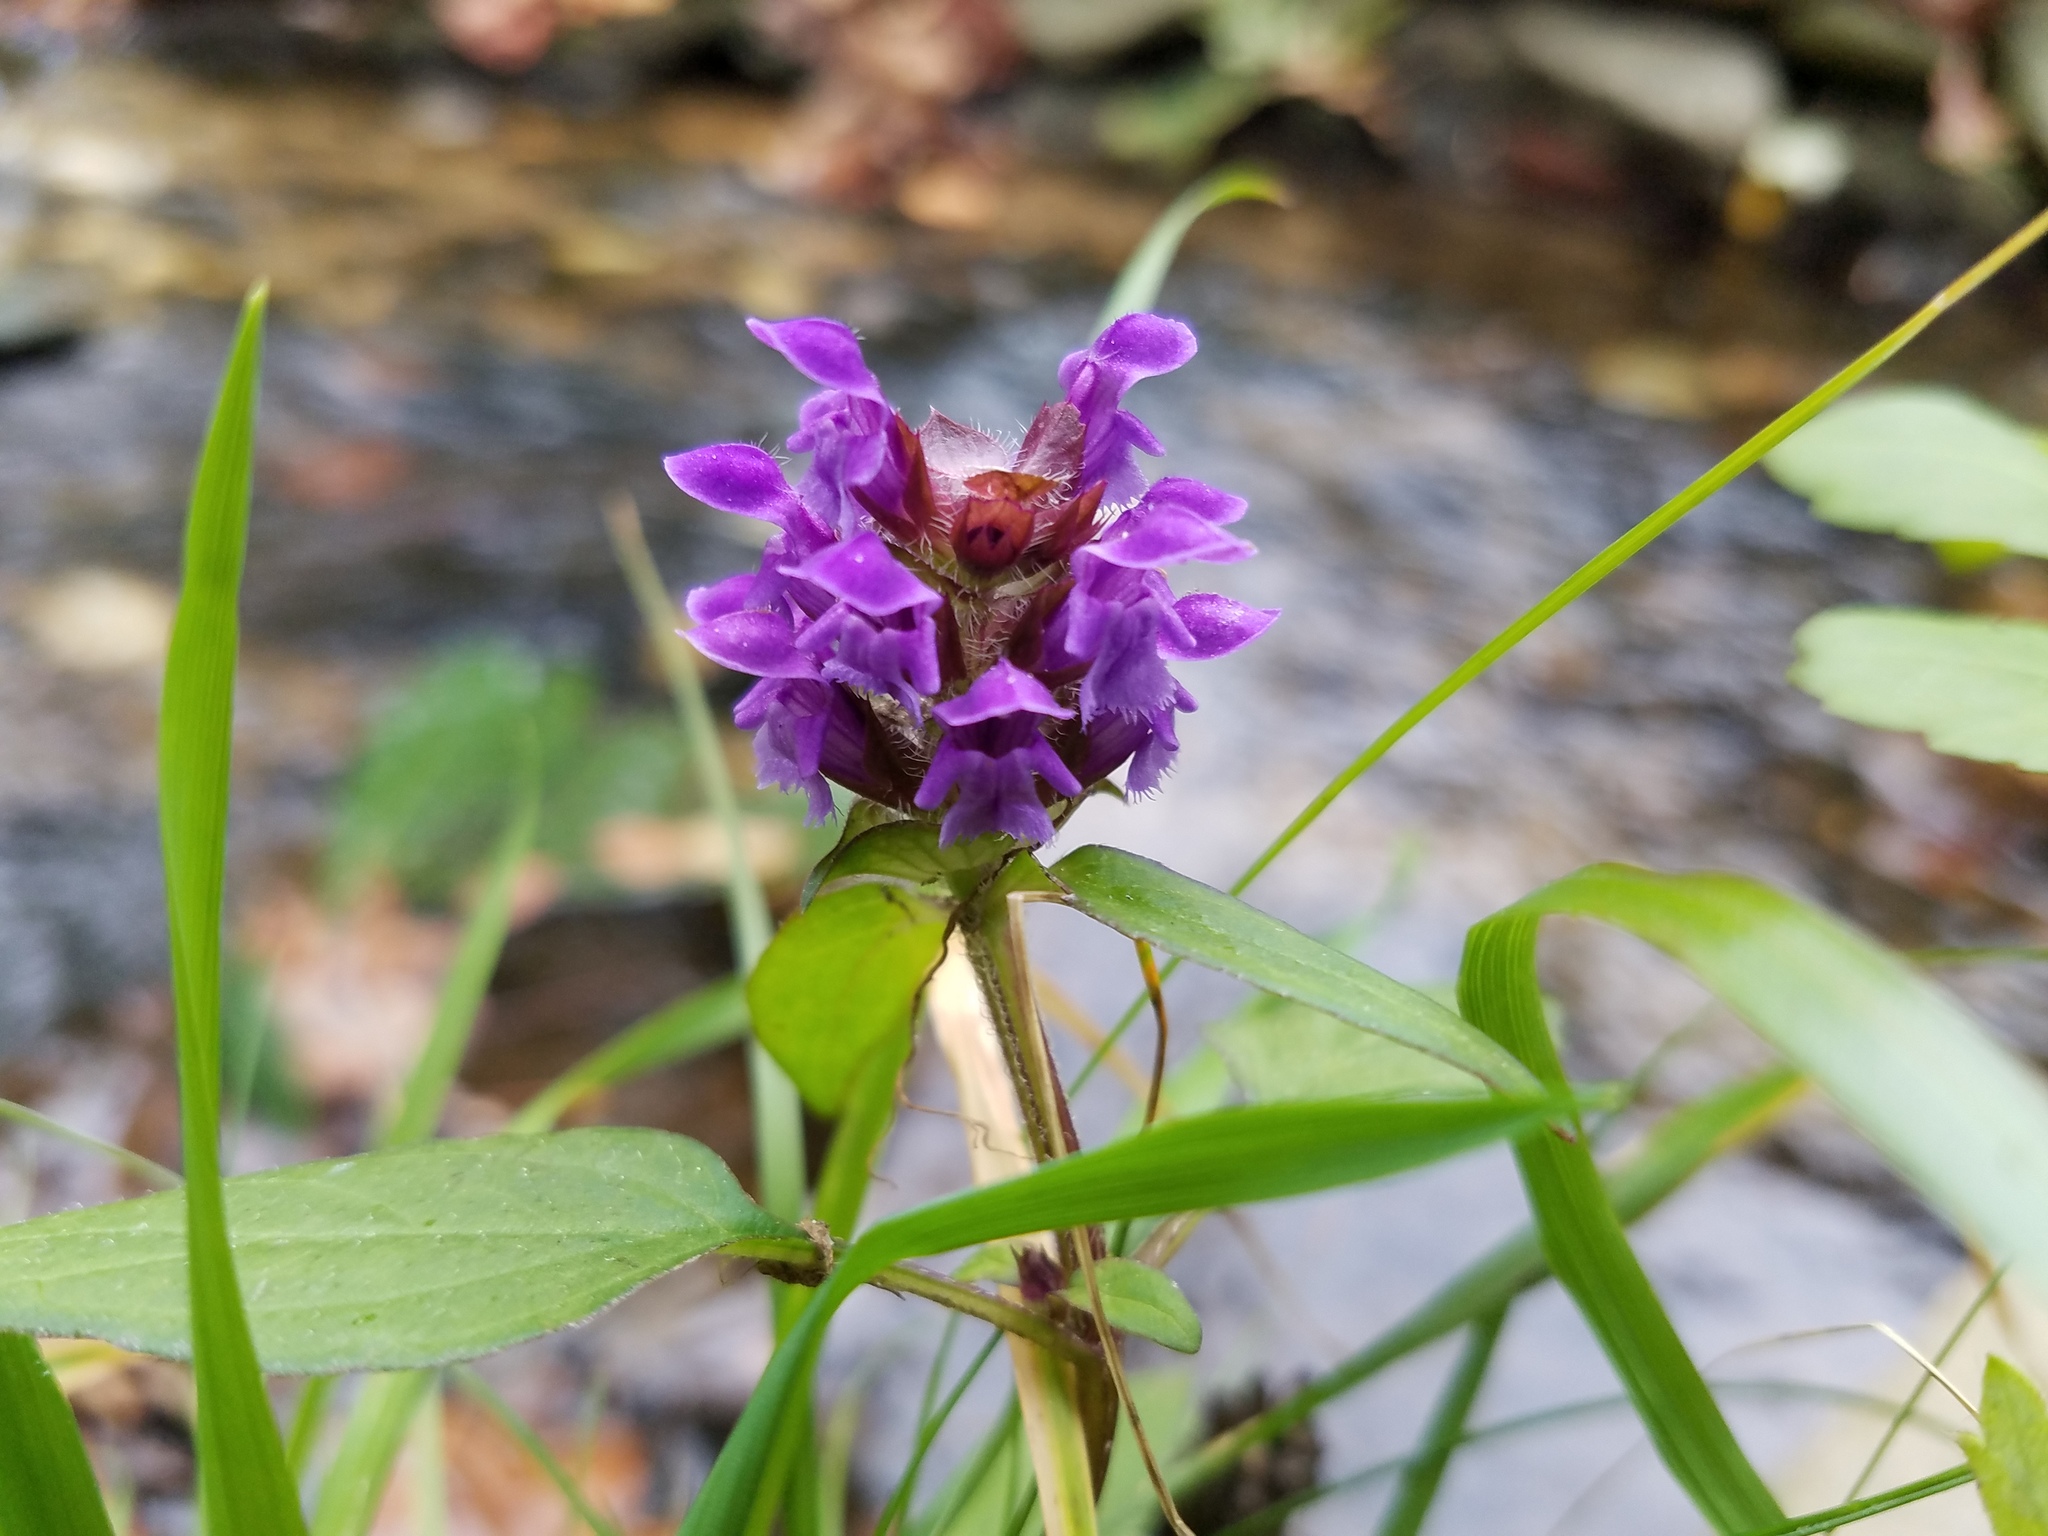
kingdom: Plantae
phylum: Tracheophyta
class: Magnoliopsida
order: Lamiales
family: Lamiaceae
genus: Prunella
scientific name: Prunella vulgaris
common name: Heal-all
